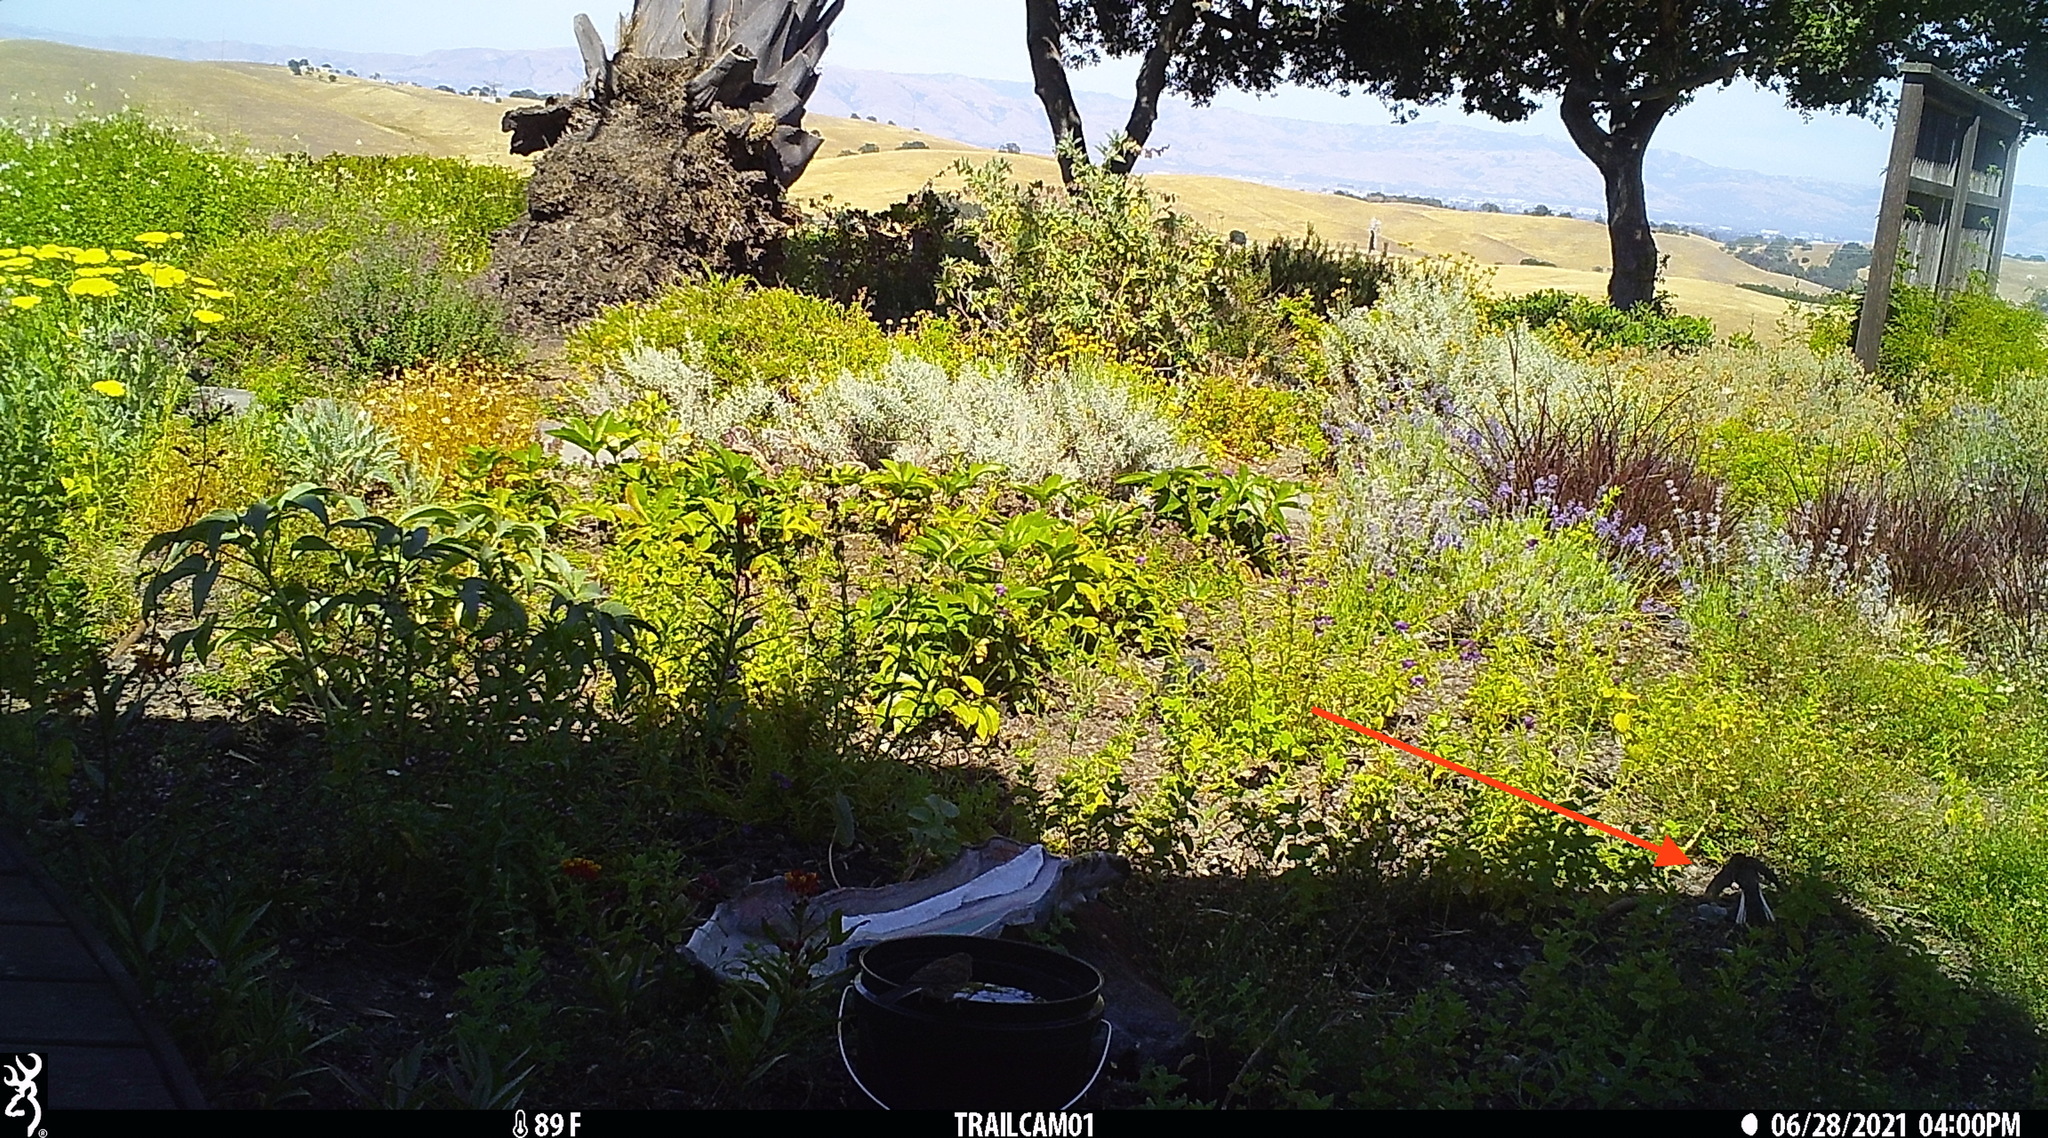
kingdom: Animalia
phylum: Chordata
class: Aves
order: Passeriformes
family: Passerellidae
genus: Junco
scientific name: Junco hyemalis
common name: Dark-eyed junco
